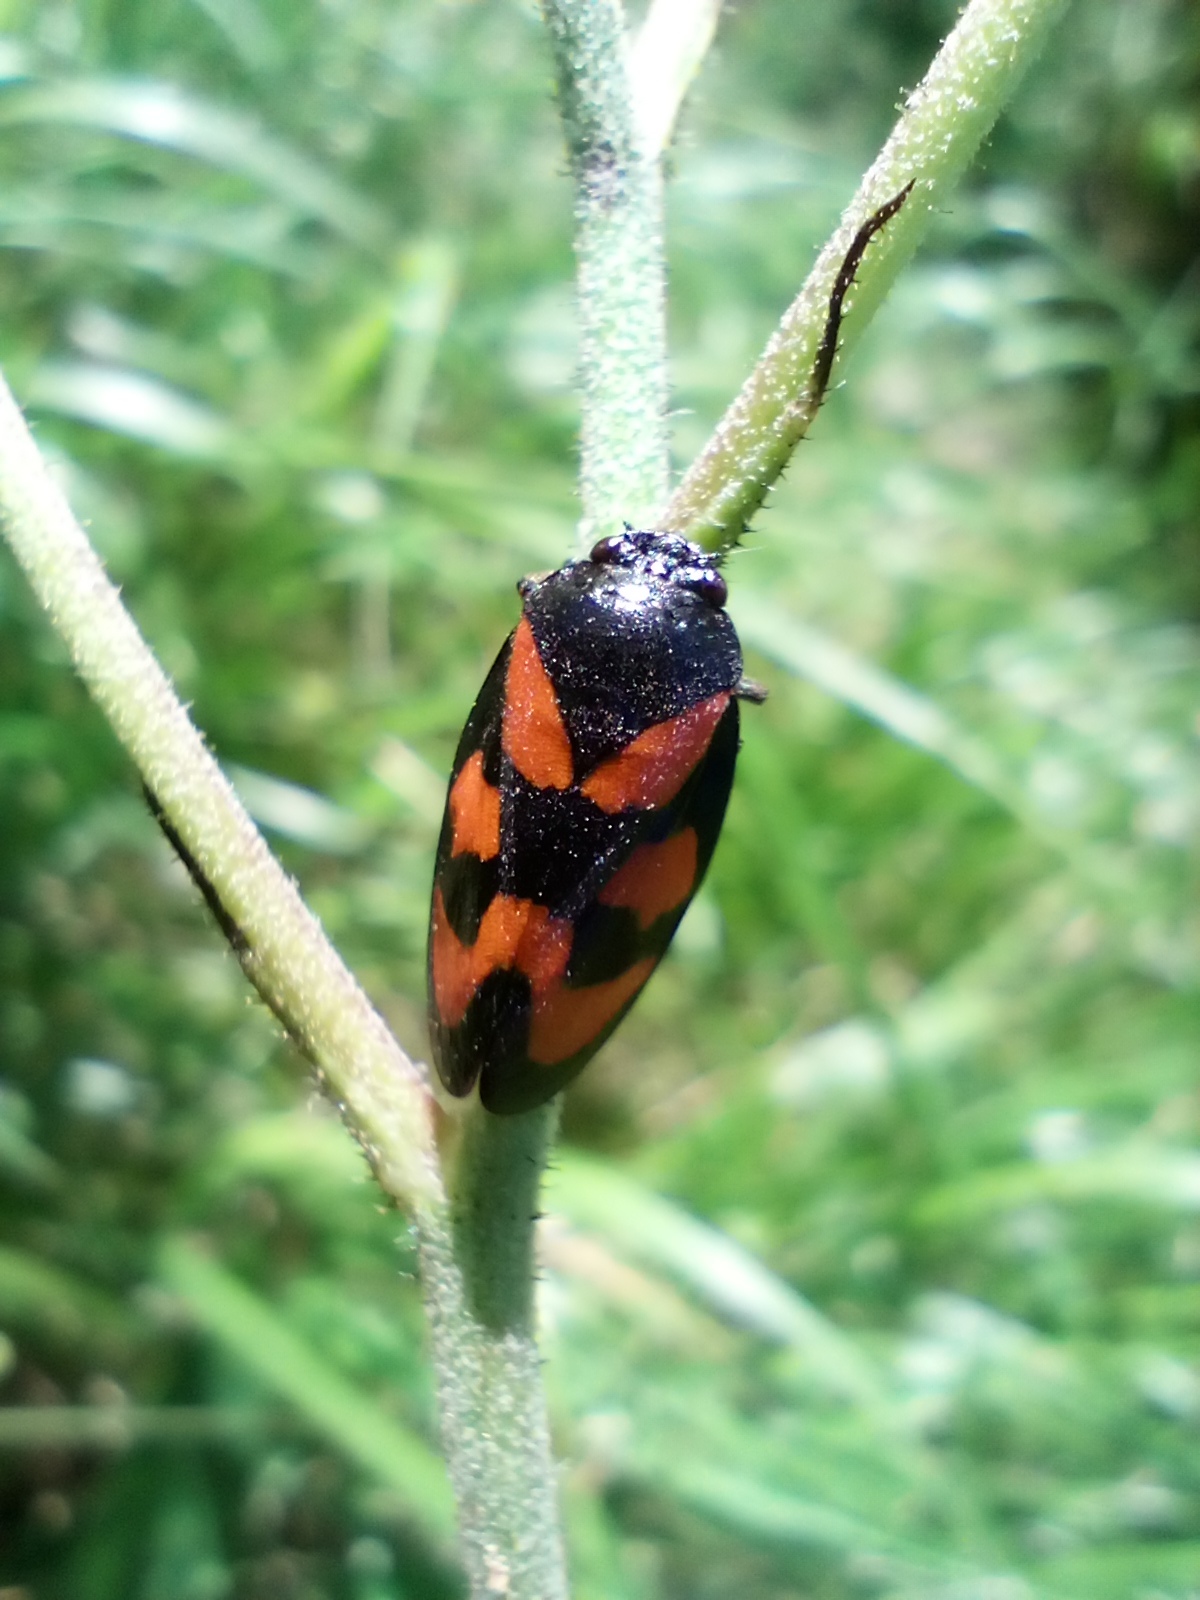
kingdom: Animalia
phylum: Arthropoda
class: Insecta
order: Hemiptera
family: Cercopidae
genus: Cercopis
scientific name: Cercopis vulnerata
